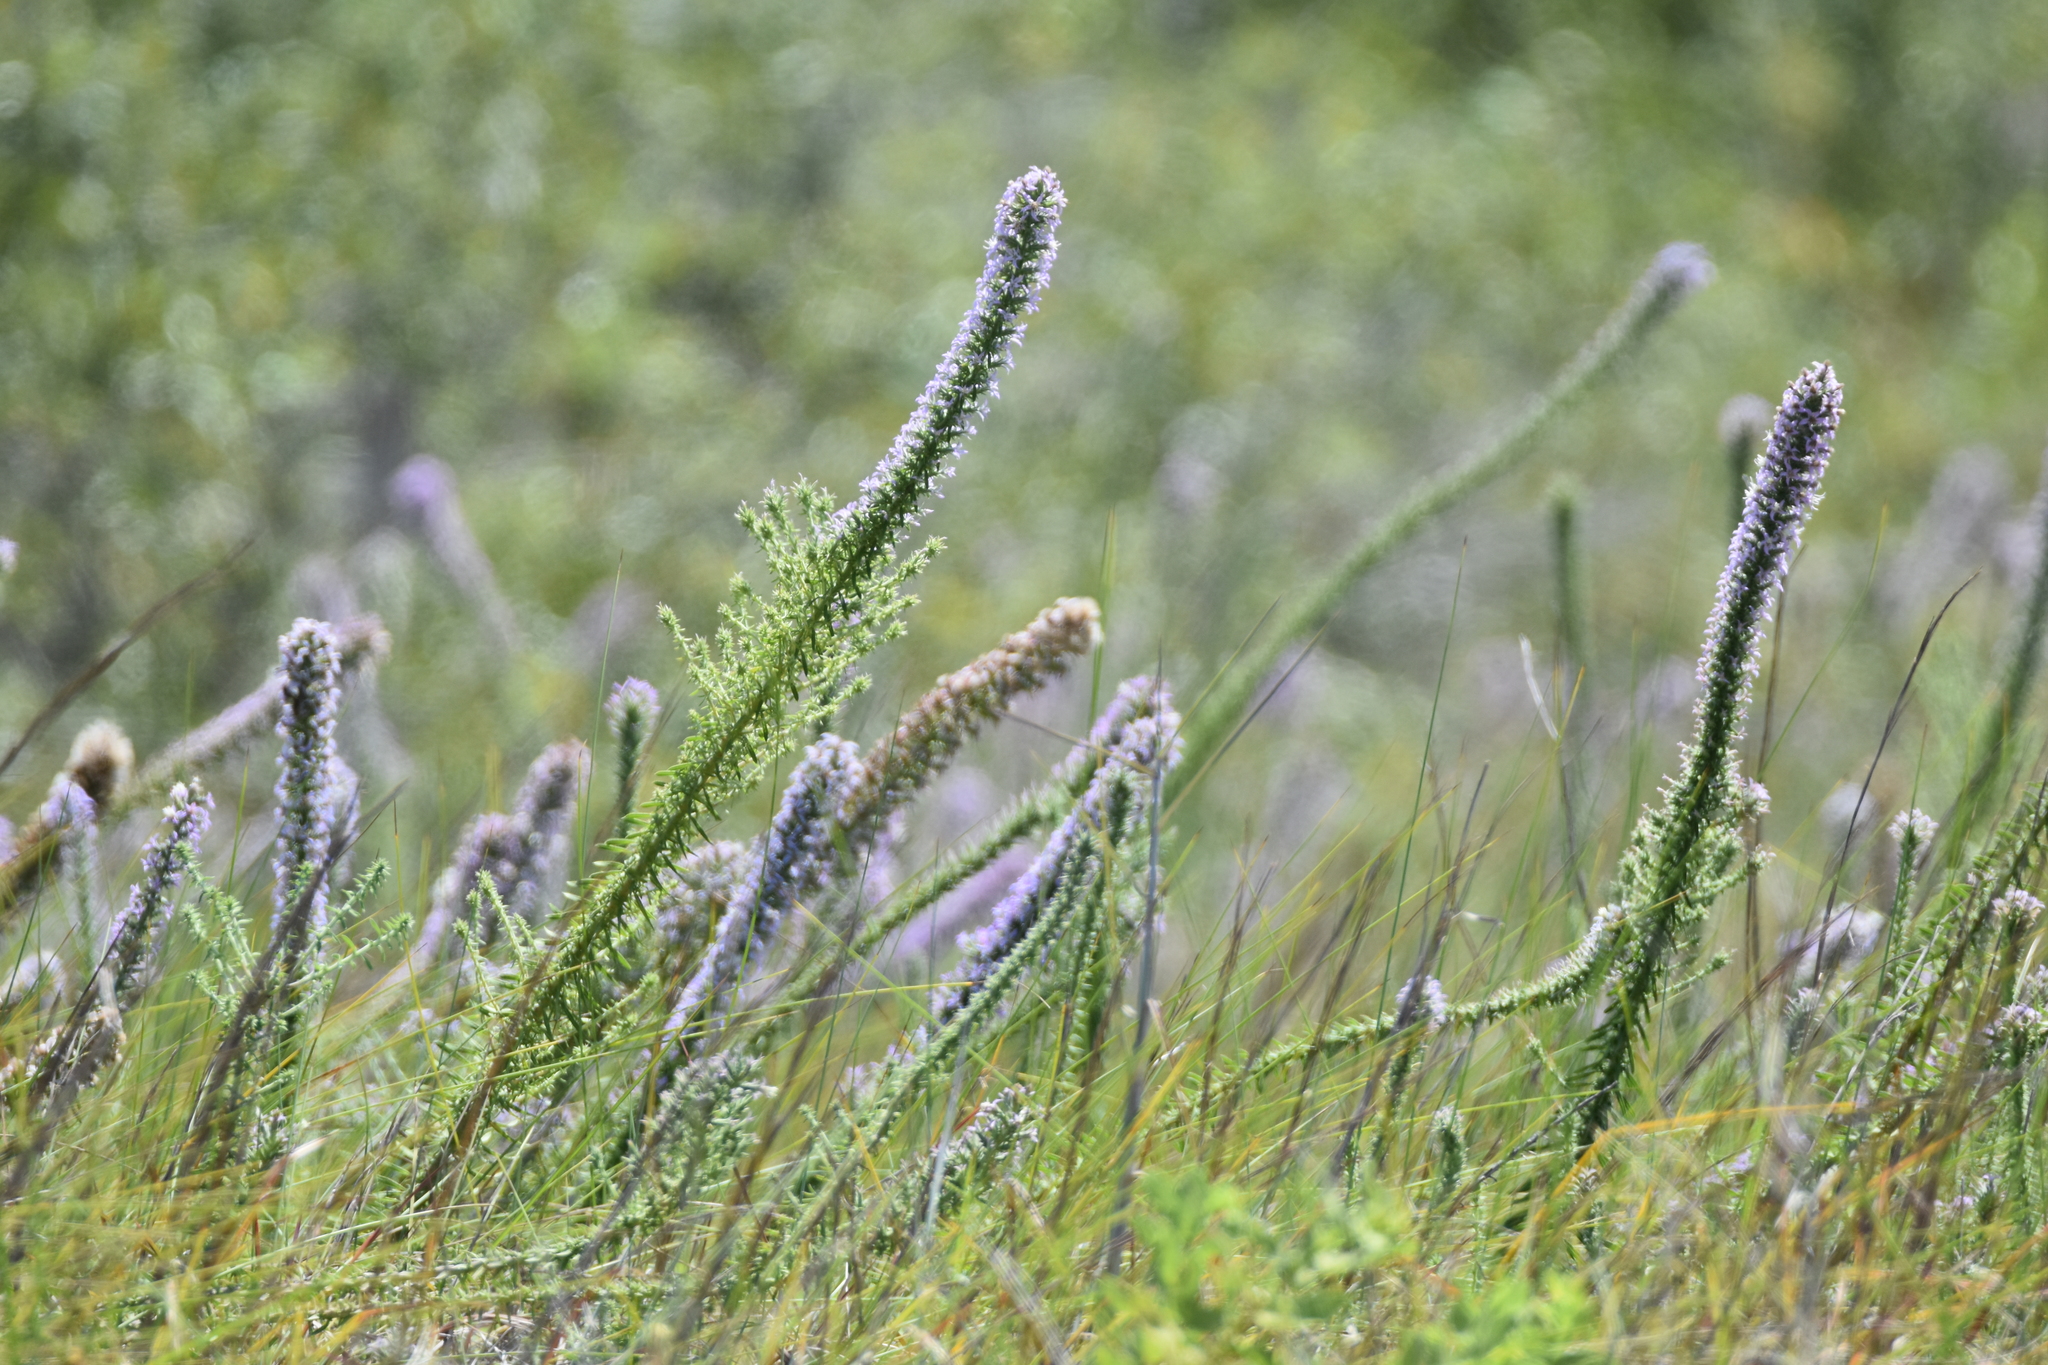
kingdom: Plantae
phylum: Tracheophyta
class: Magnoliopsida
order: Asterales
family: Asteraceae
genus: Liatris
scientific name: Liatris carizzana
